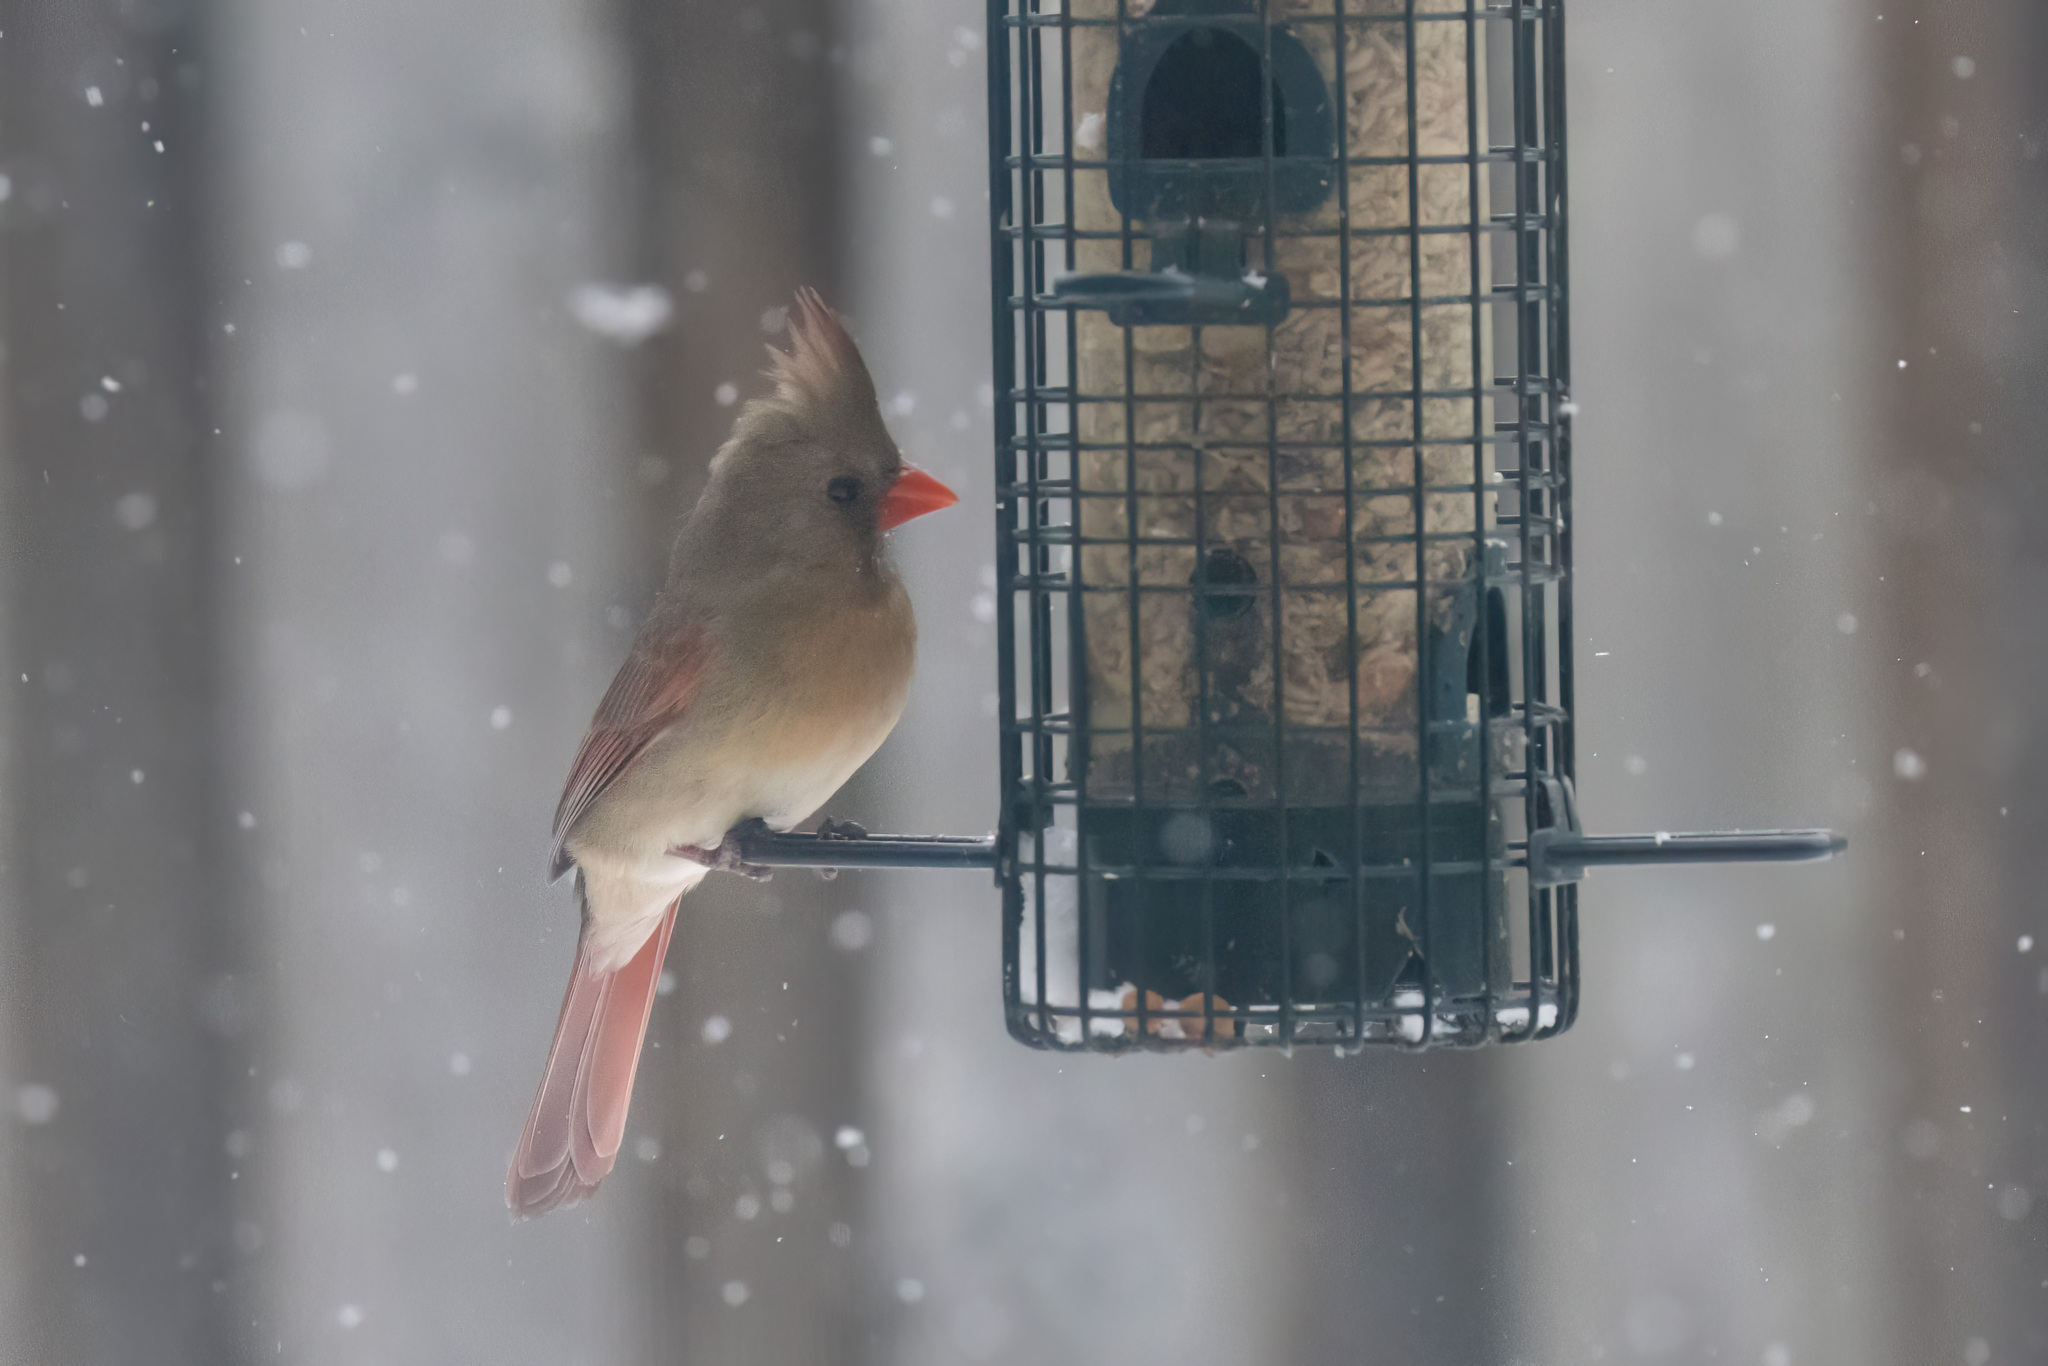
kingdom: Animalia
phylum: Chordata
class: Aves
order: Passeriformes
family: Cardinalidae
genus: Cardinalis
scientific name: Cardinalis cardinalis
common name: Northern cardinal
